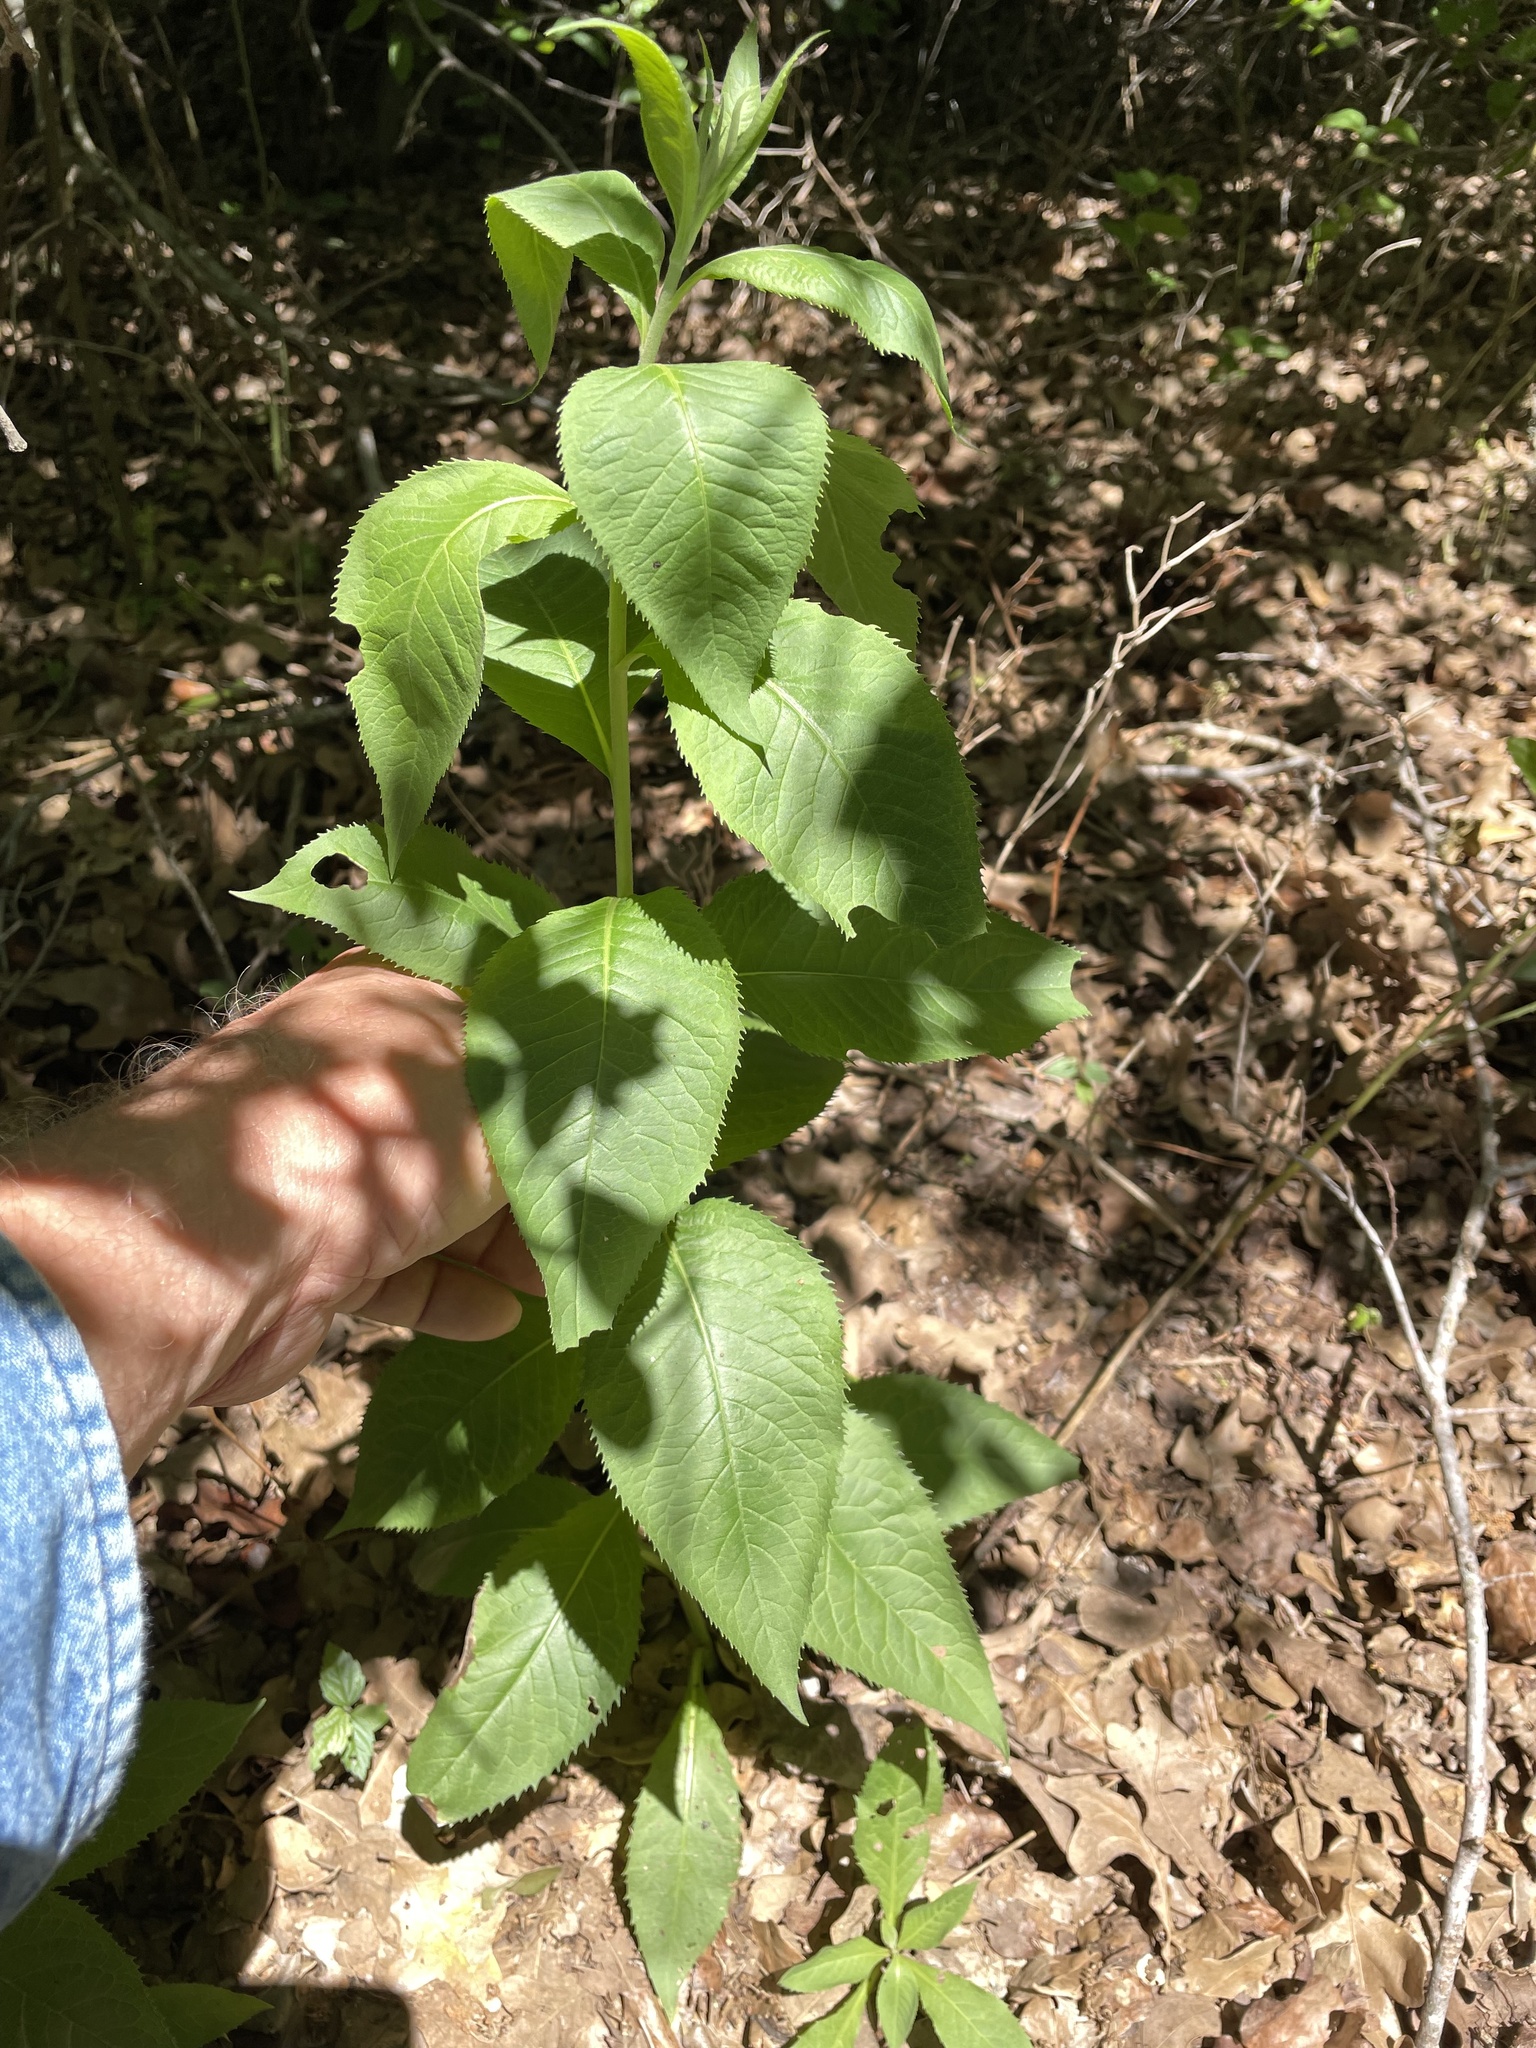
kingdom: Plantae
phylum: Tracheophyta
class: Magnoliopsida
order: Asterales
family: Asteraceae
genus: Vernonia
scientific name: Vernonia baldwinii
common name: Western ironweed
